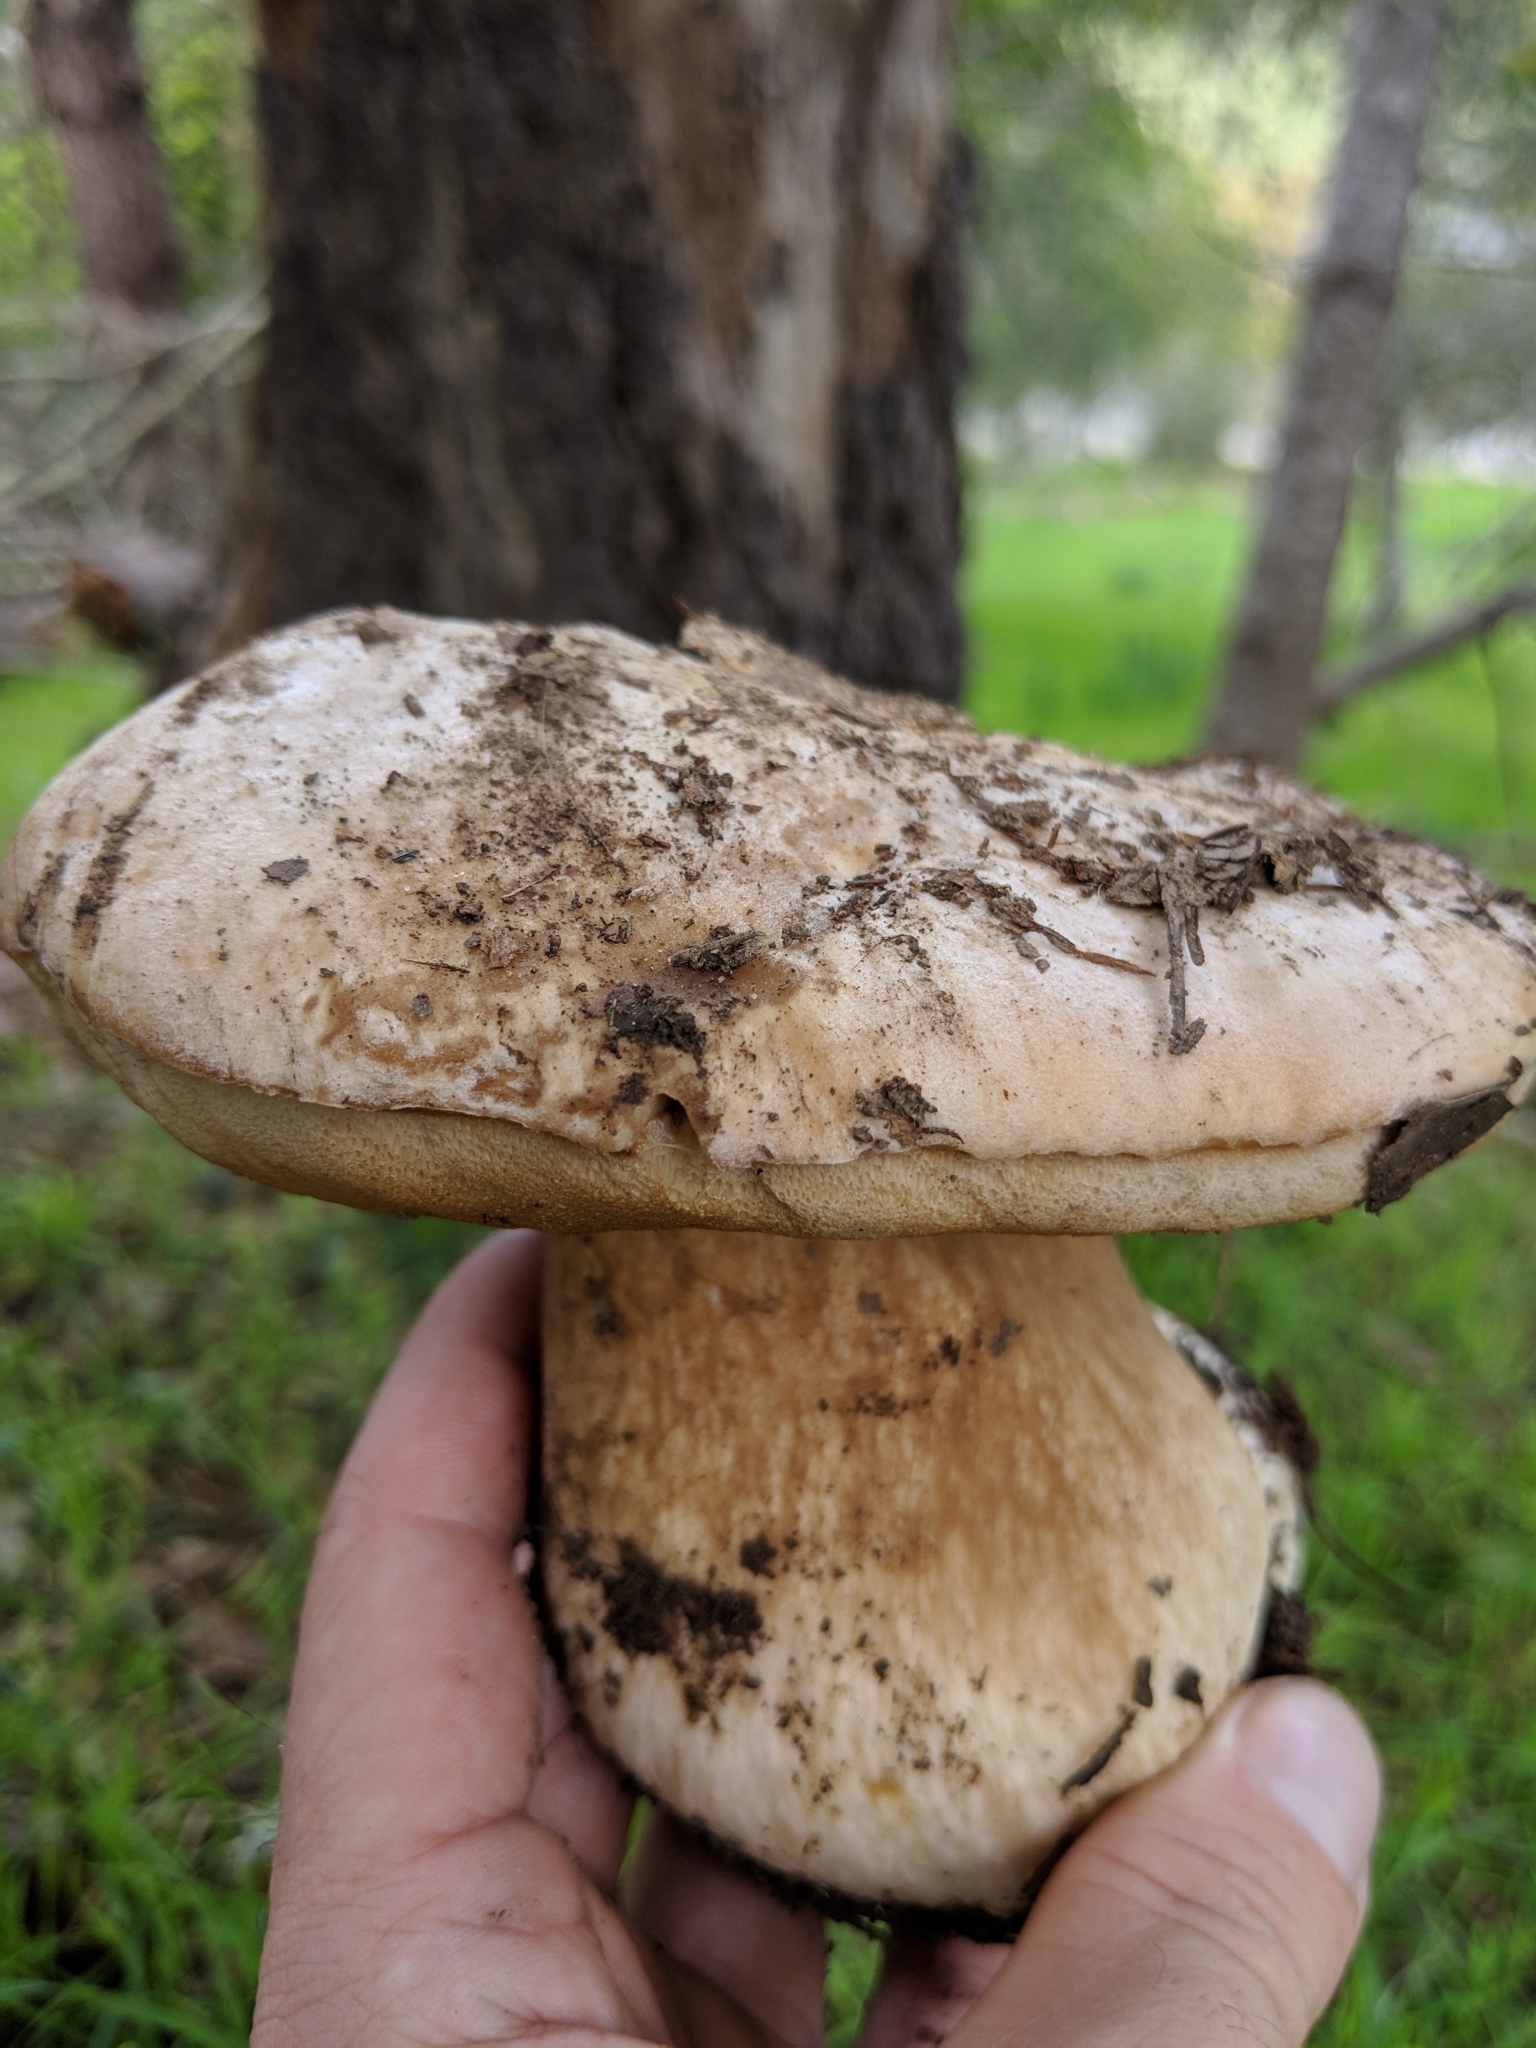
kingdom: Fungi
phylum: Basidiomycota
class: Agaricomycetes
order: Boletales
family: Boletaceae
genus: Boletus
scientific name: Boletus barrowsii
